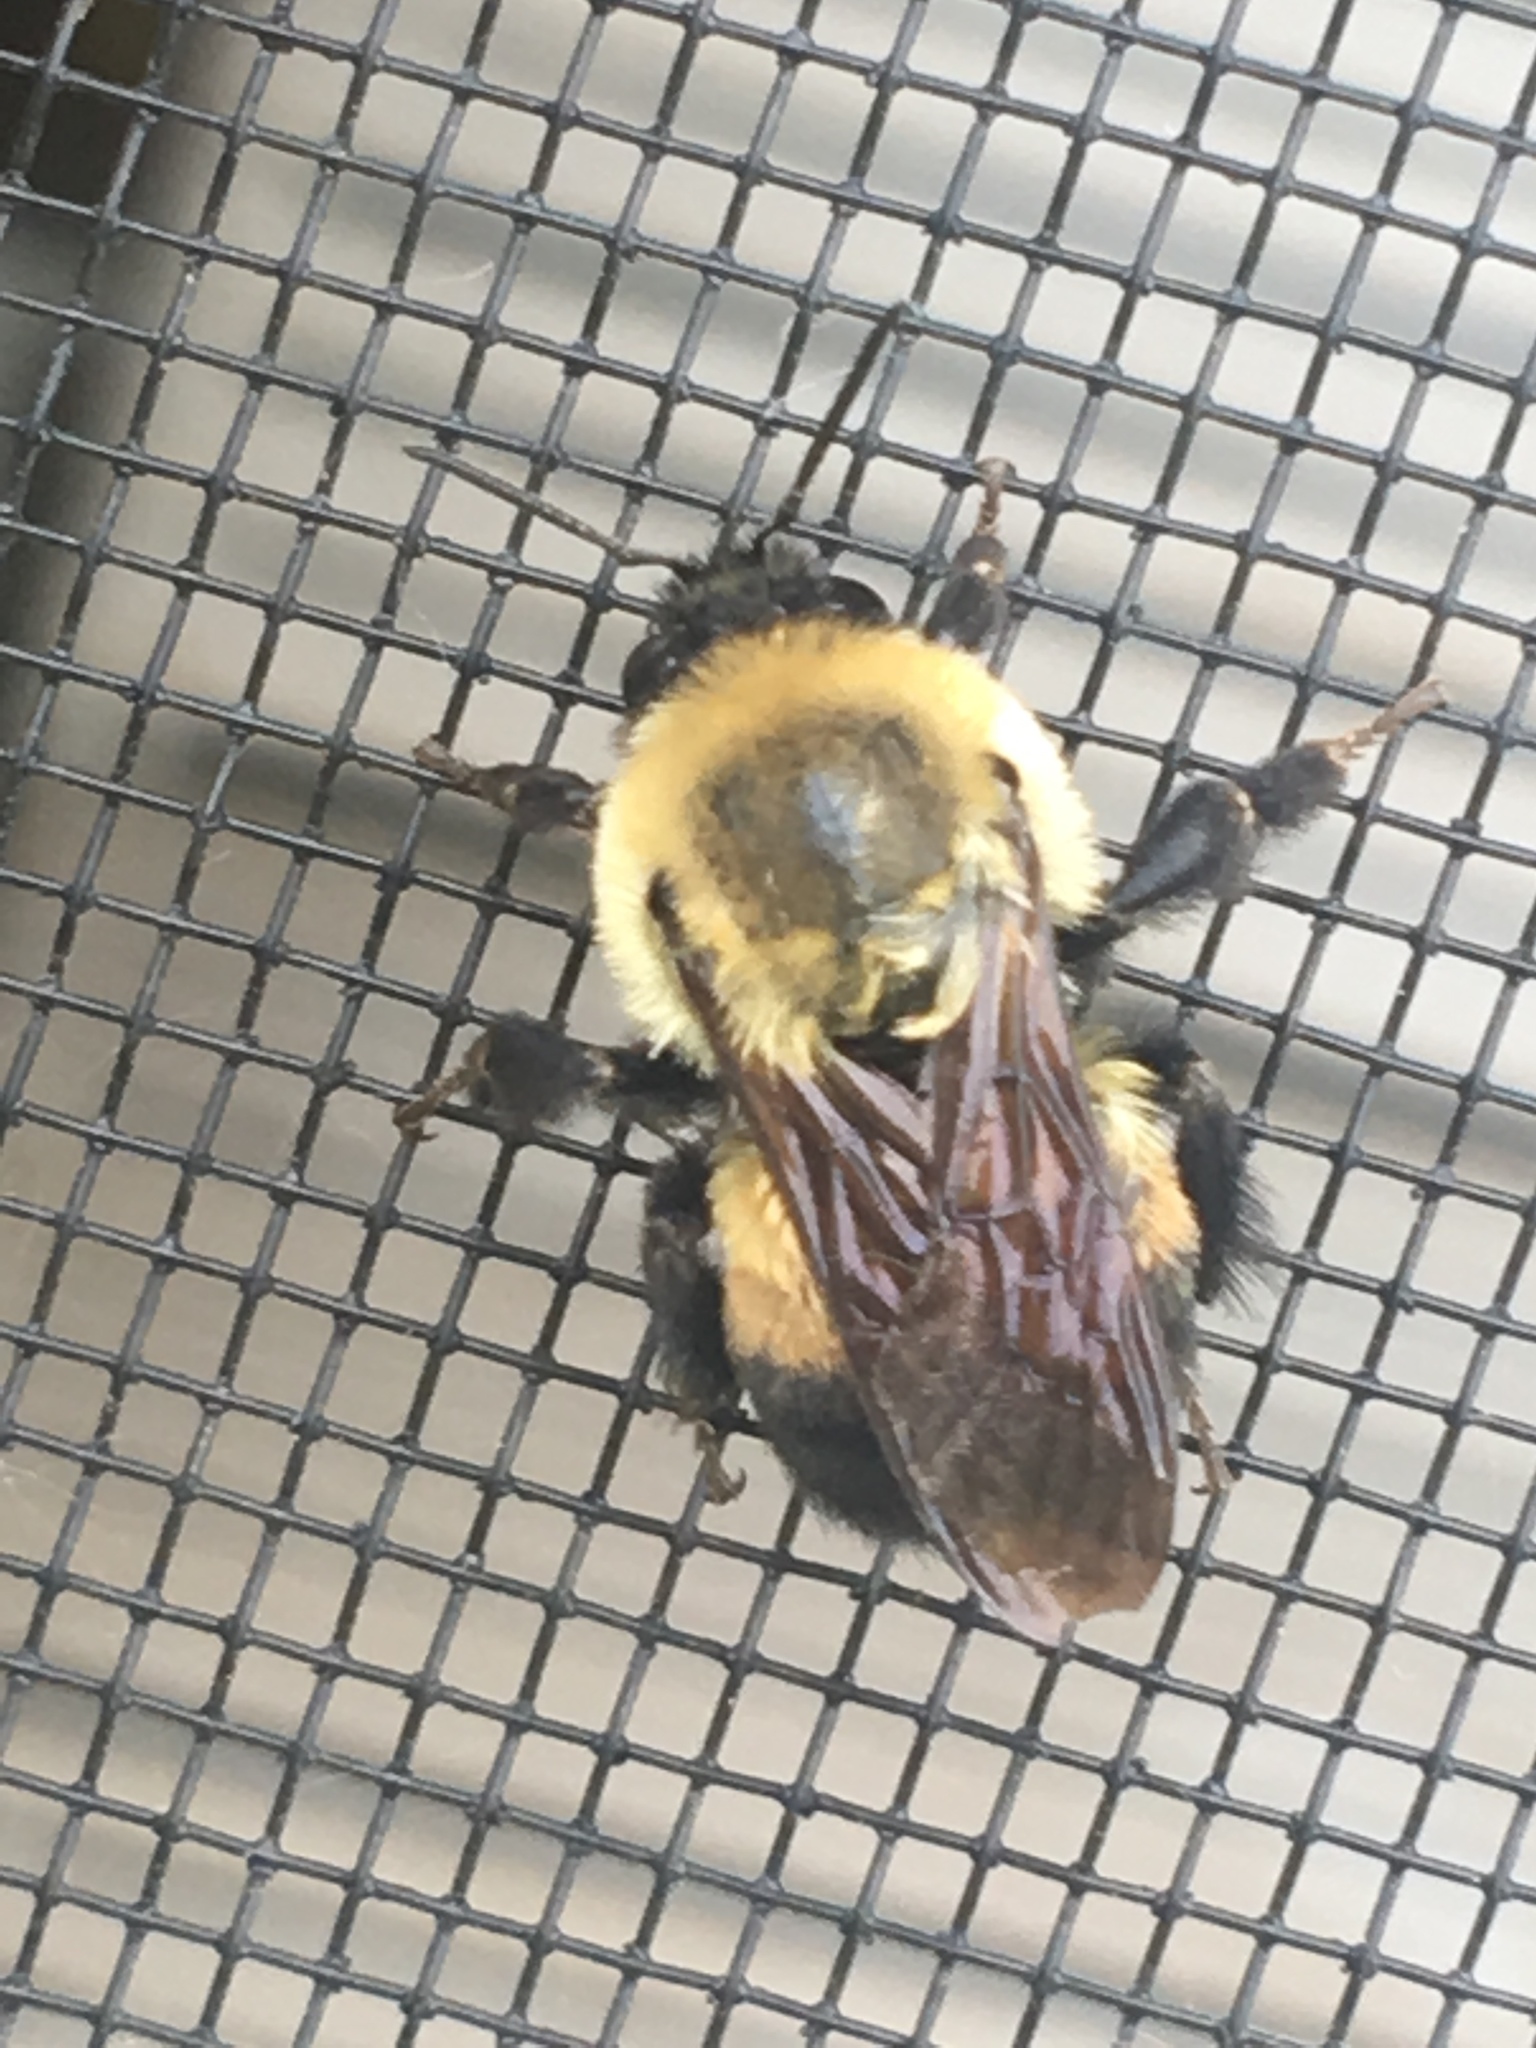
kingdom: Animalia
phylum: Arthropoda
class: Insecta
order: Hymenoptera
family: Apidae
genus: Bombus
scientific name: Bombus griseocollis
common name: Brown-belted bumble bee
